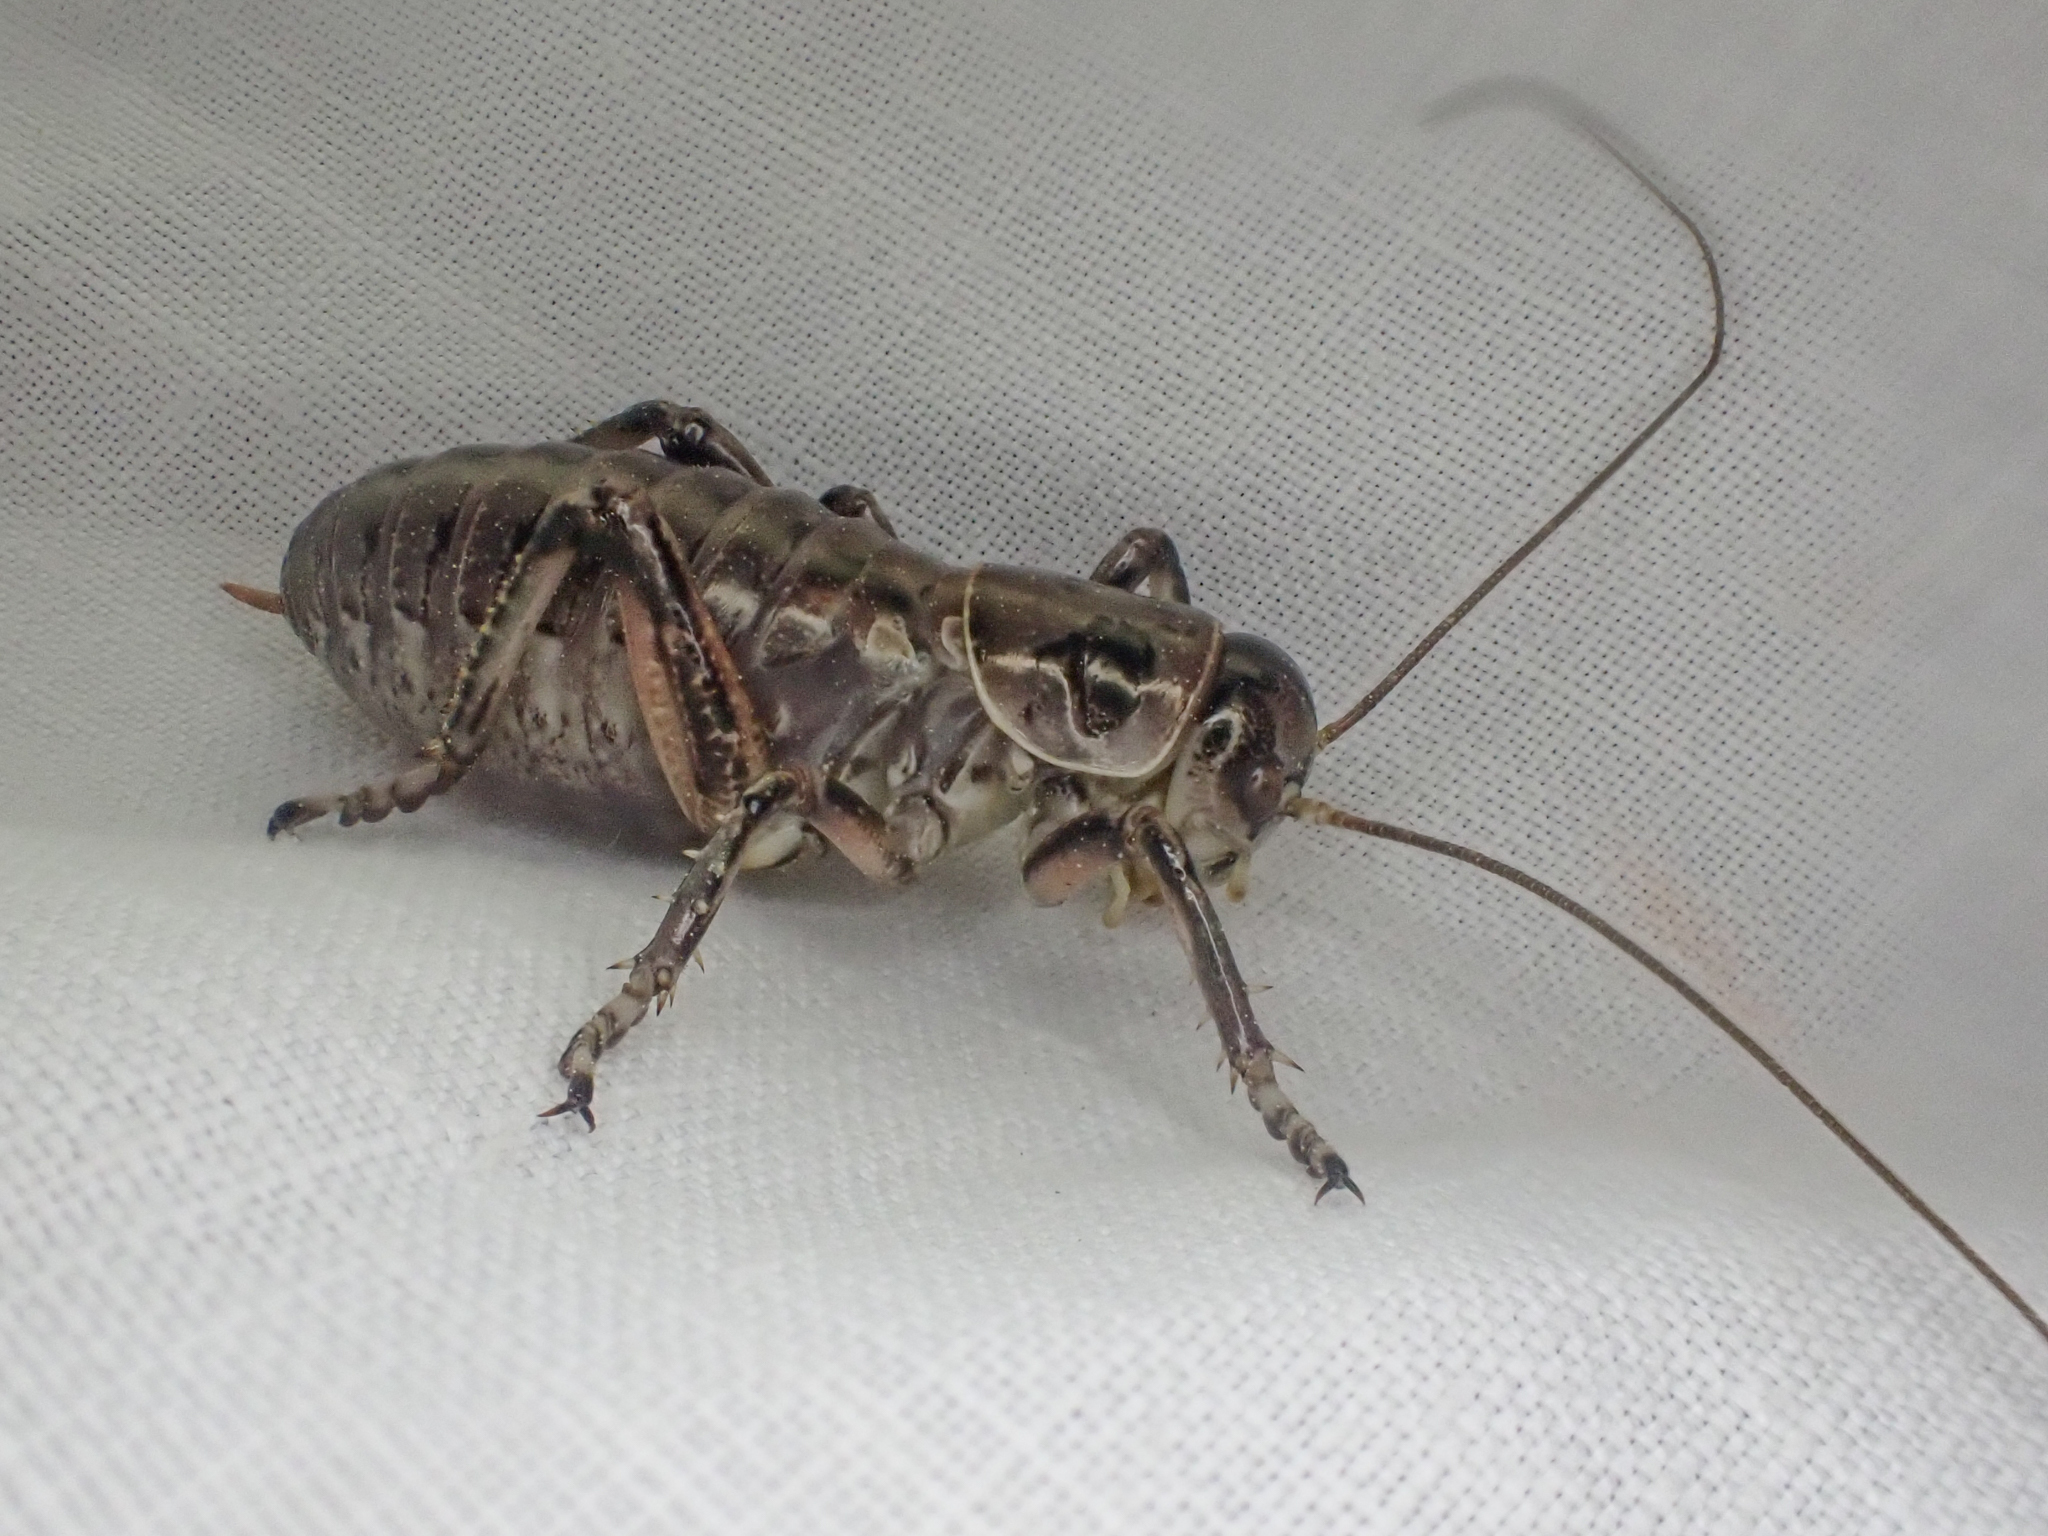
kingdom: Animalia
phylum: Arthropoda
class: Insecta
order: Orthoptera
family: Prophalangopsidae
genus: Cyphoderris
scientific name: Cyphoderris monstrosa
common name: Great grig
